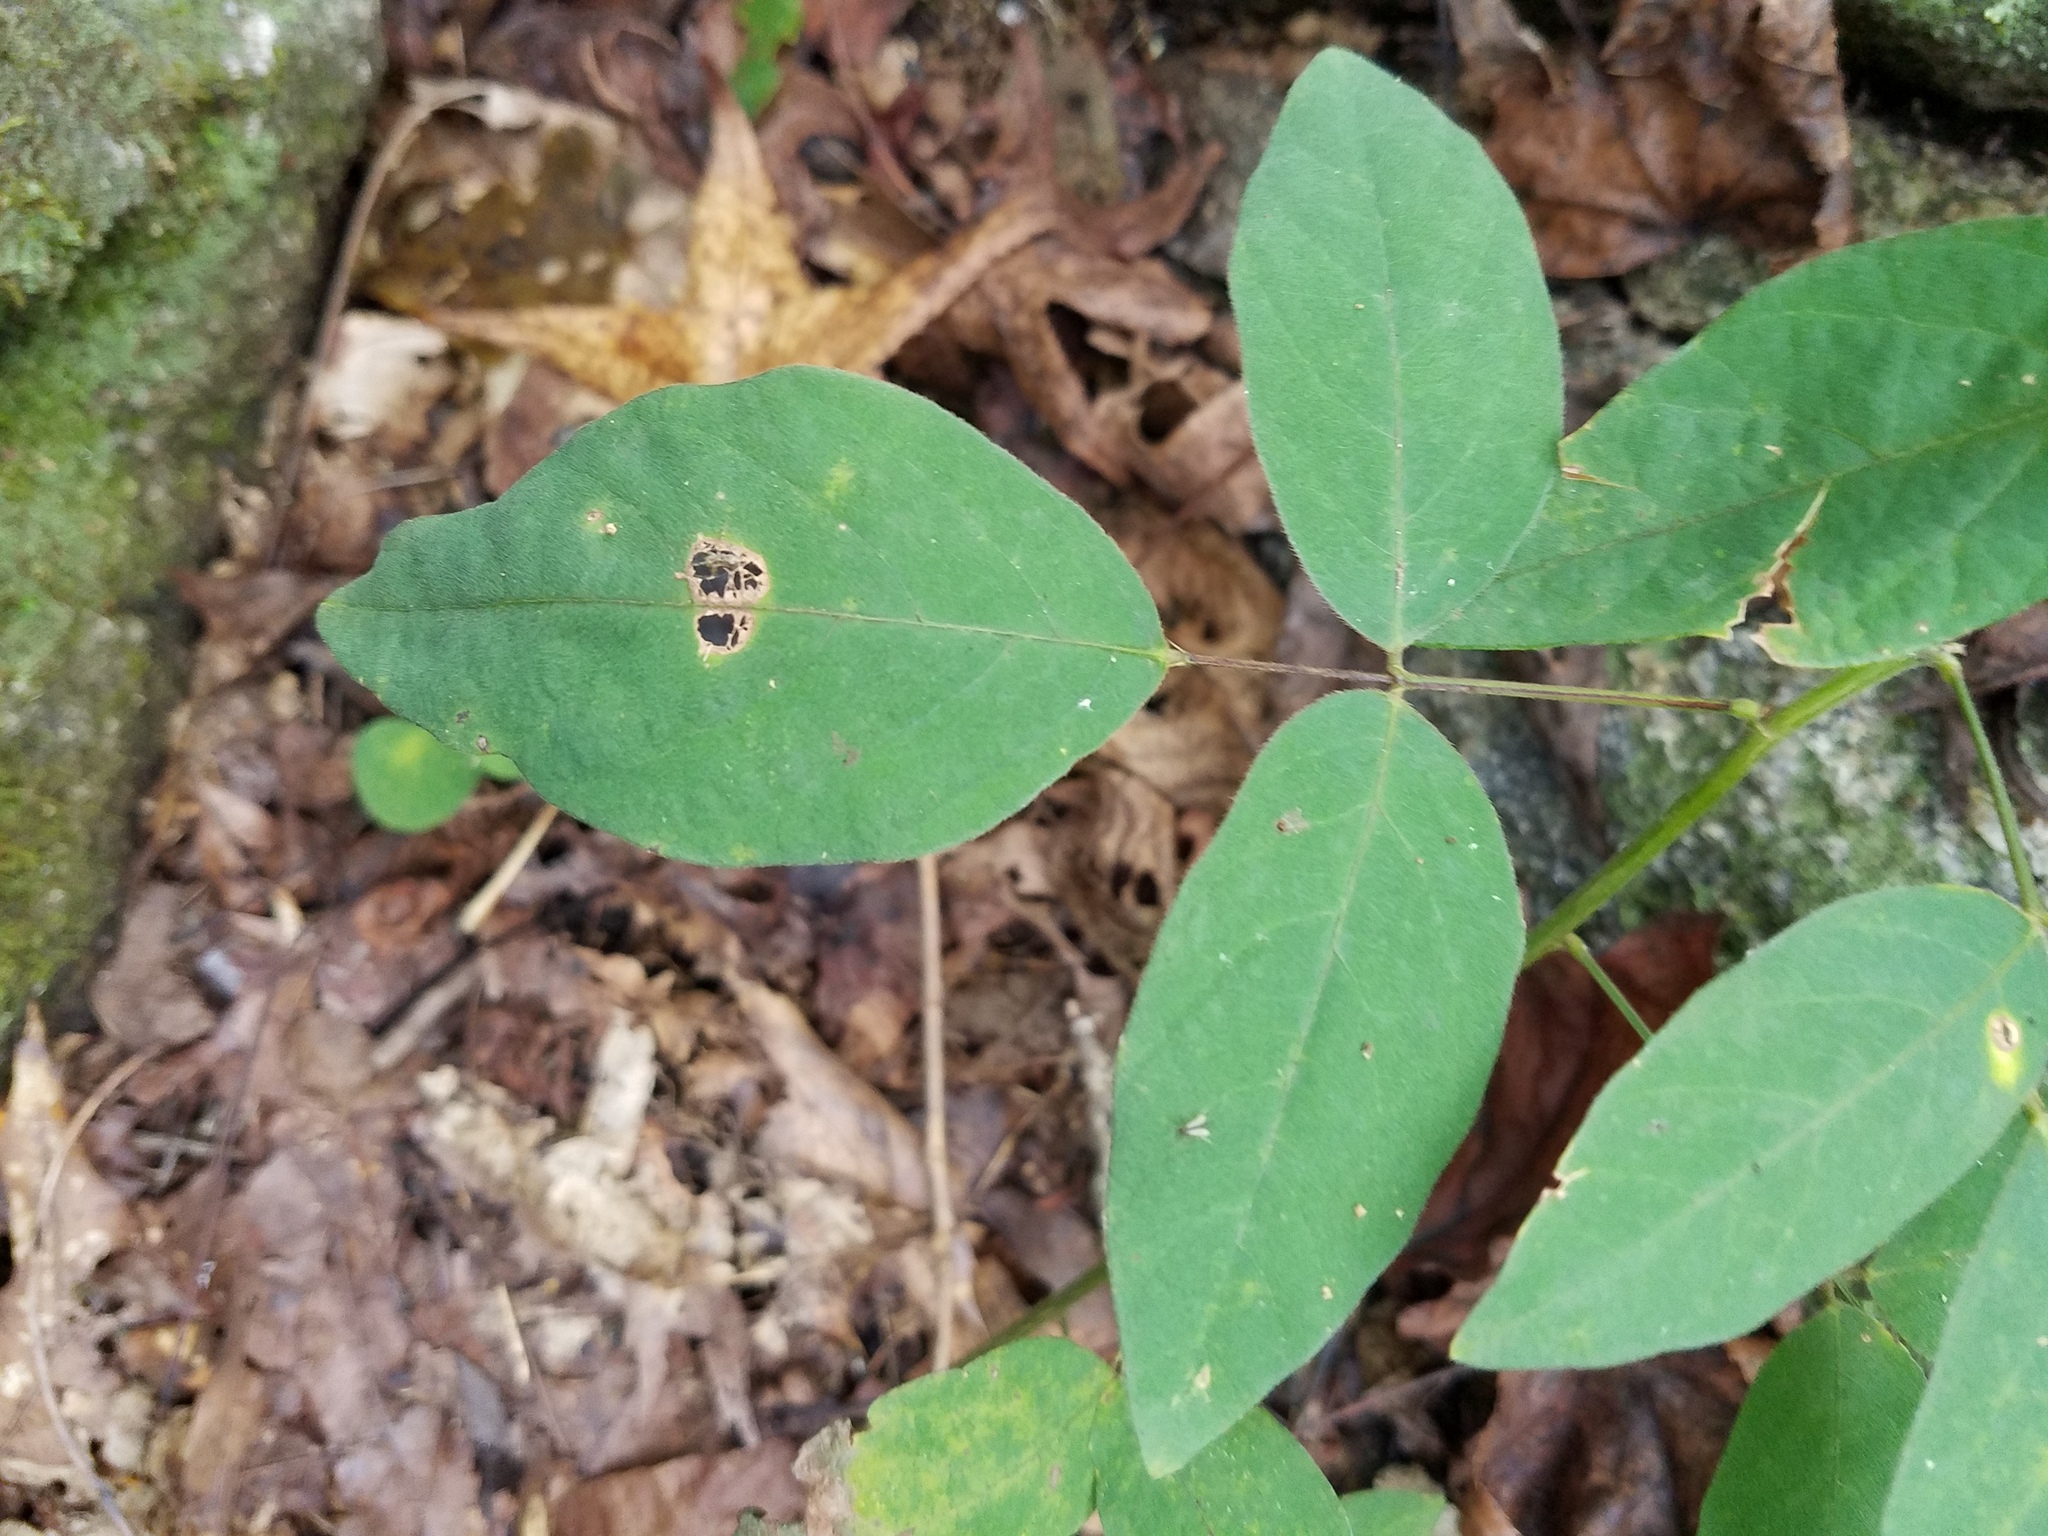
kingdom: Plantae
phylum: Tracheophyta
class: Magnoliopsida
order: Fabales
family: Fabaceae
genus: Desmodium
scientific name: Desmodium glabellum
